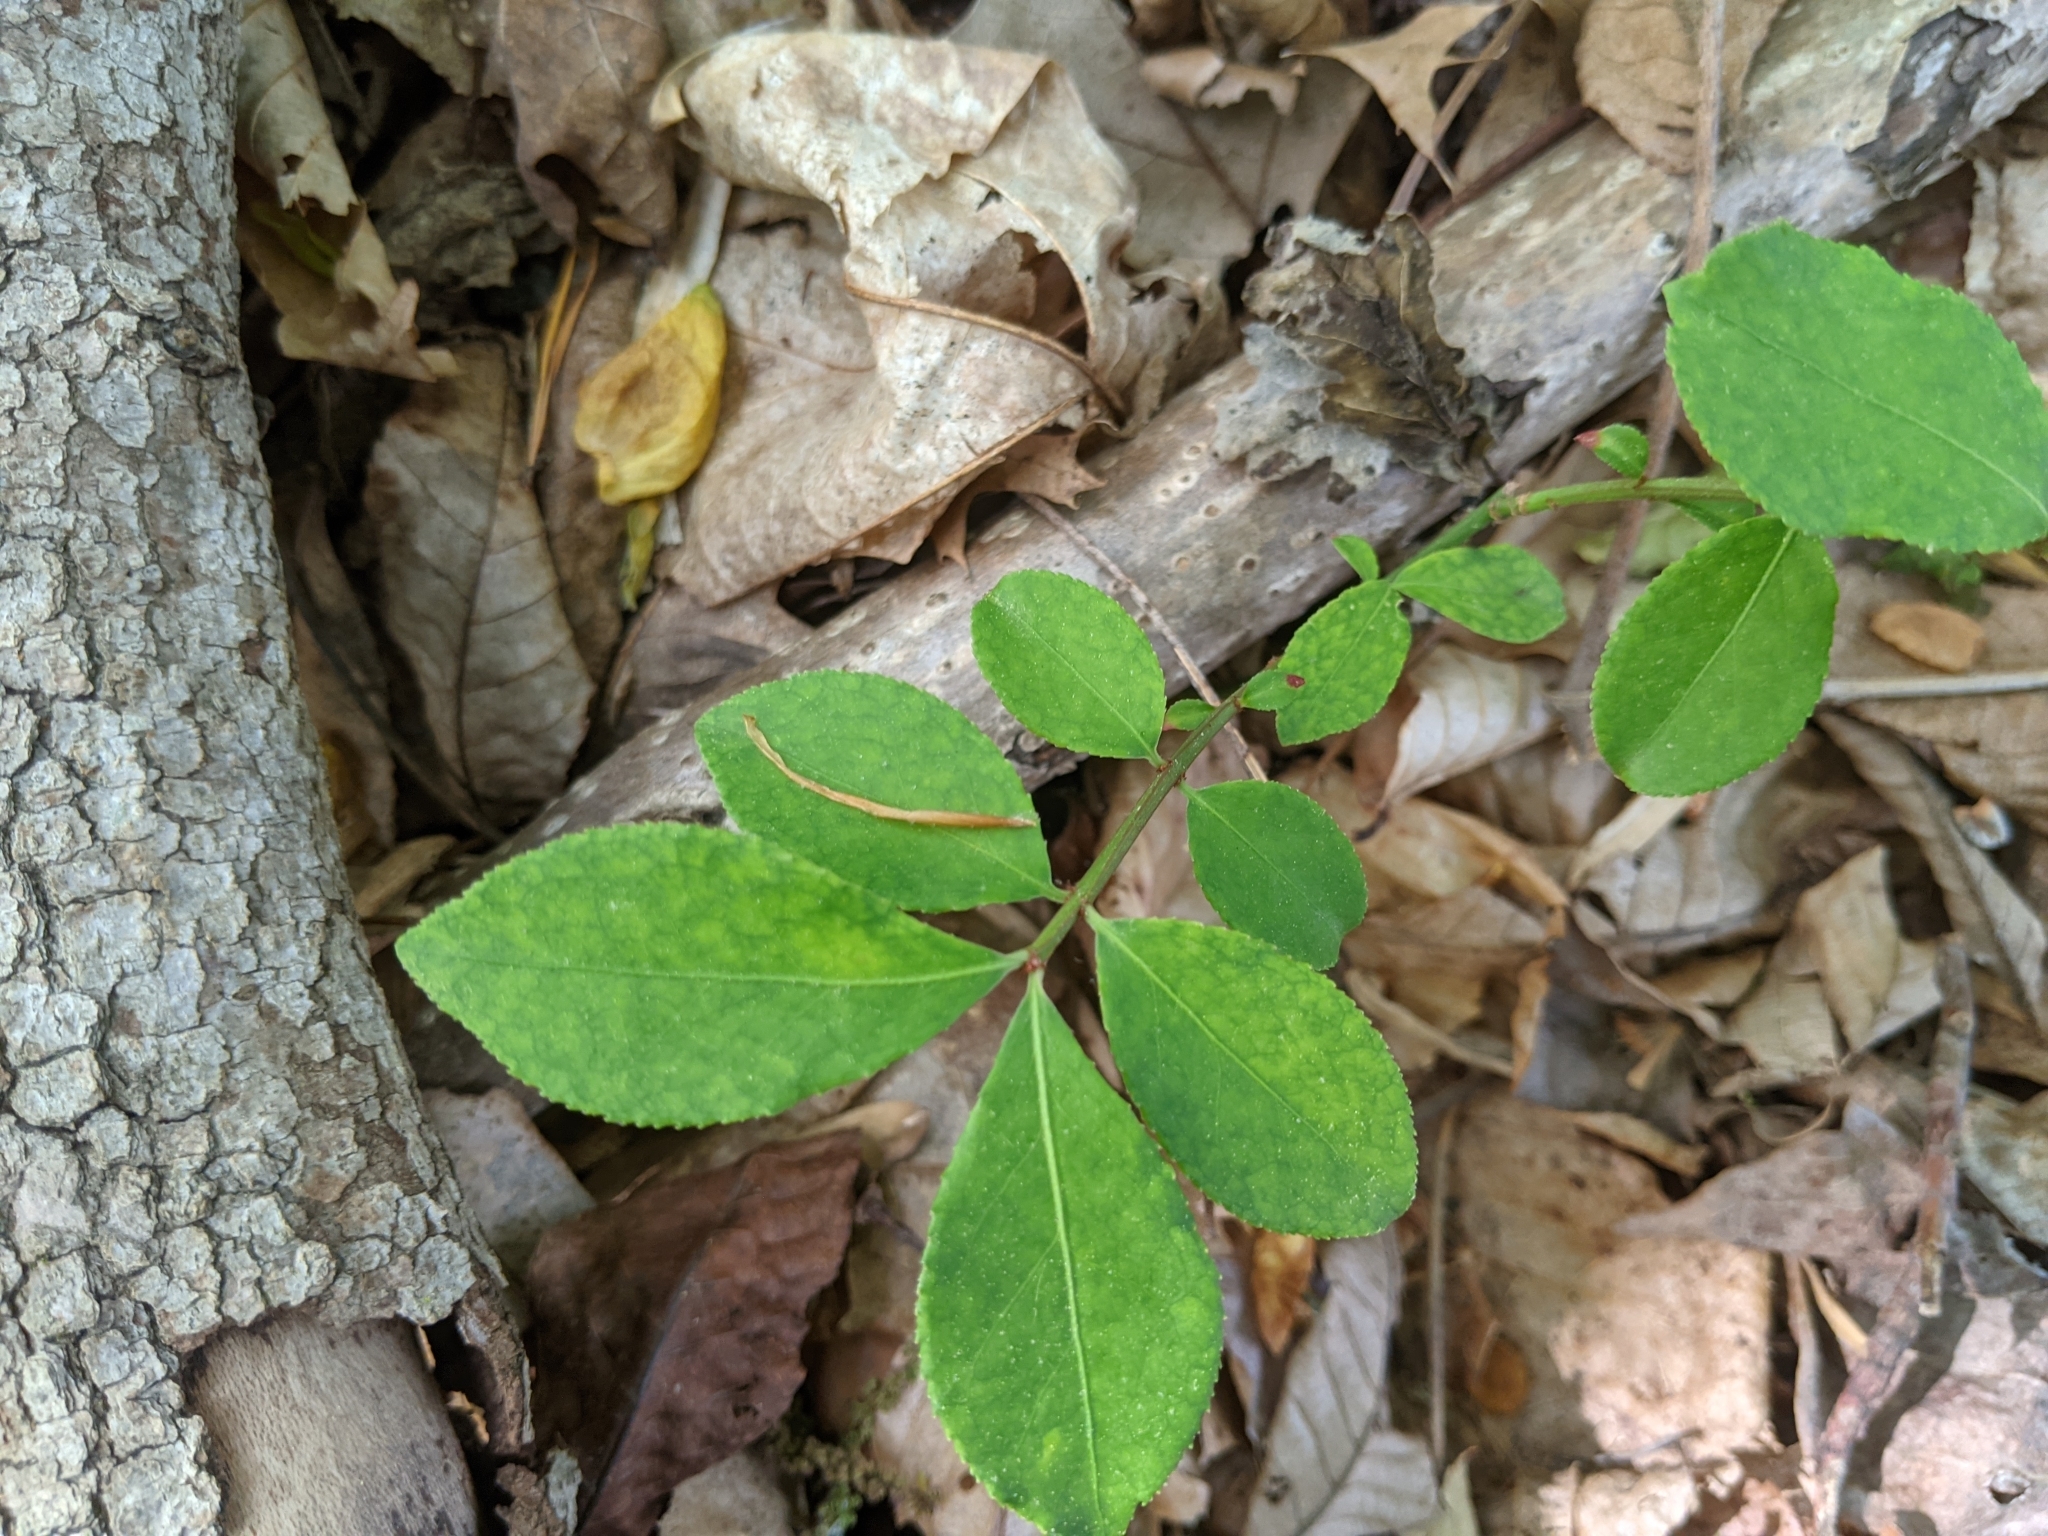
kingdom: Plantae
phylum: Tracheophyta
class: Magnoliopsida
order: Celastrales
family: Celastraceae
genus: Euonymus
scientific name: Euonymus alatus
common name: Winged euonymus
